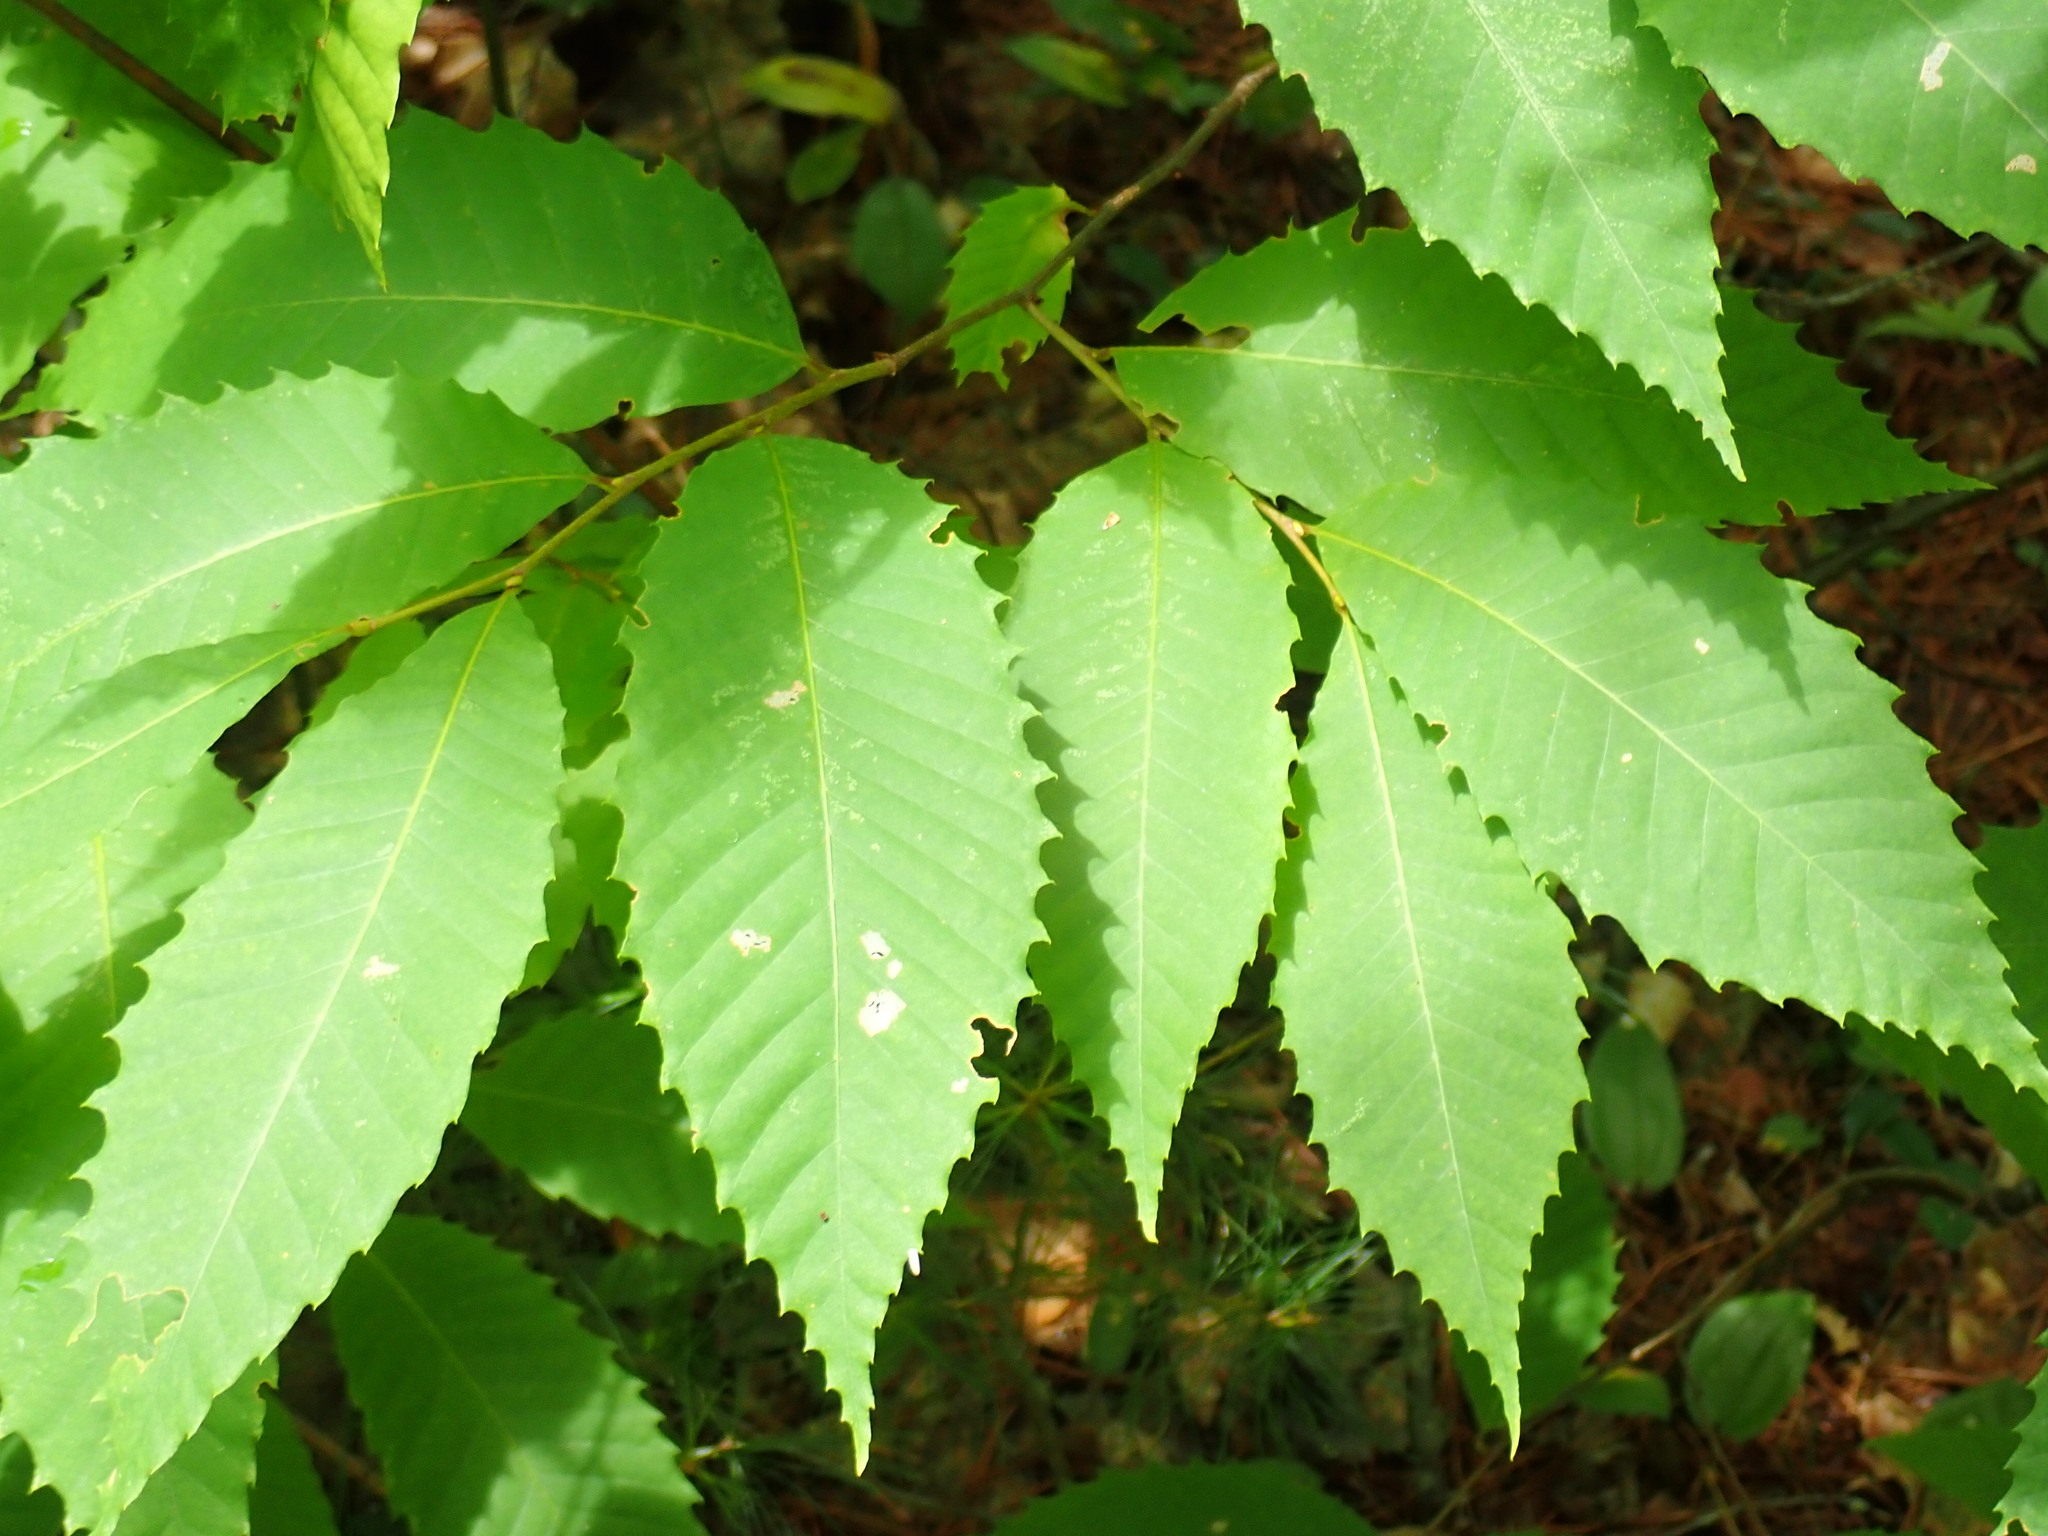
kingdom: Plantae
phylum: Tracheophyta
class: Magnoliopsida
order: Fagales
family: Fagaceae
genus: Castanea
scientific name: Castanea dentata
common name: American chestnut
